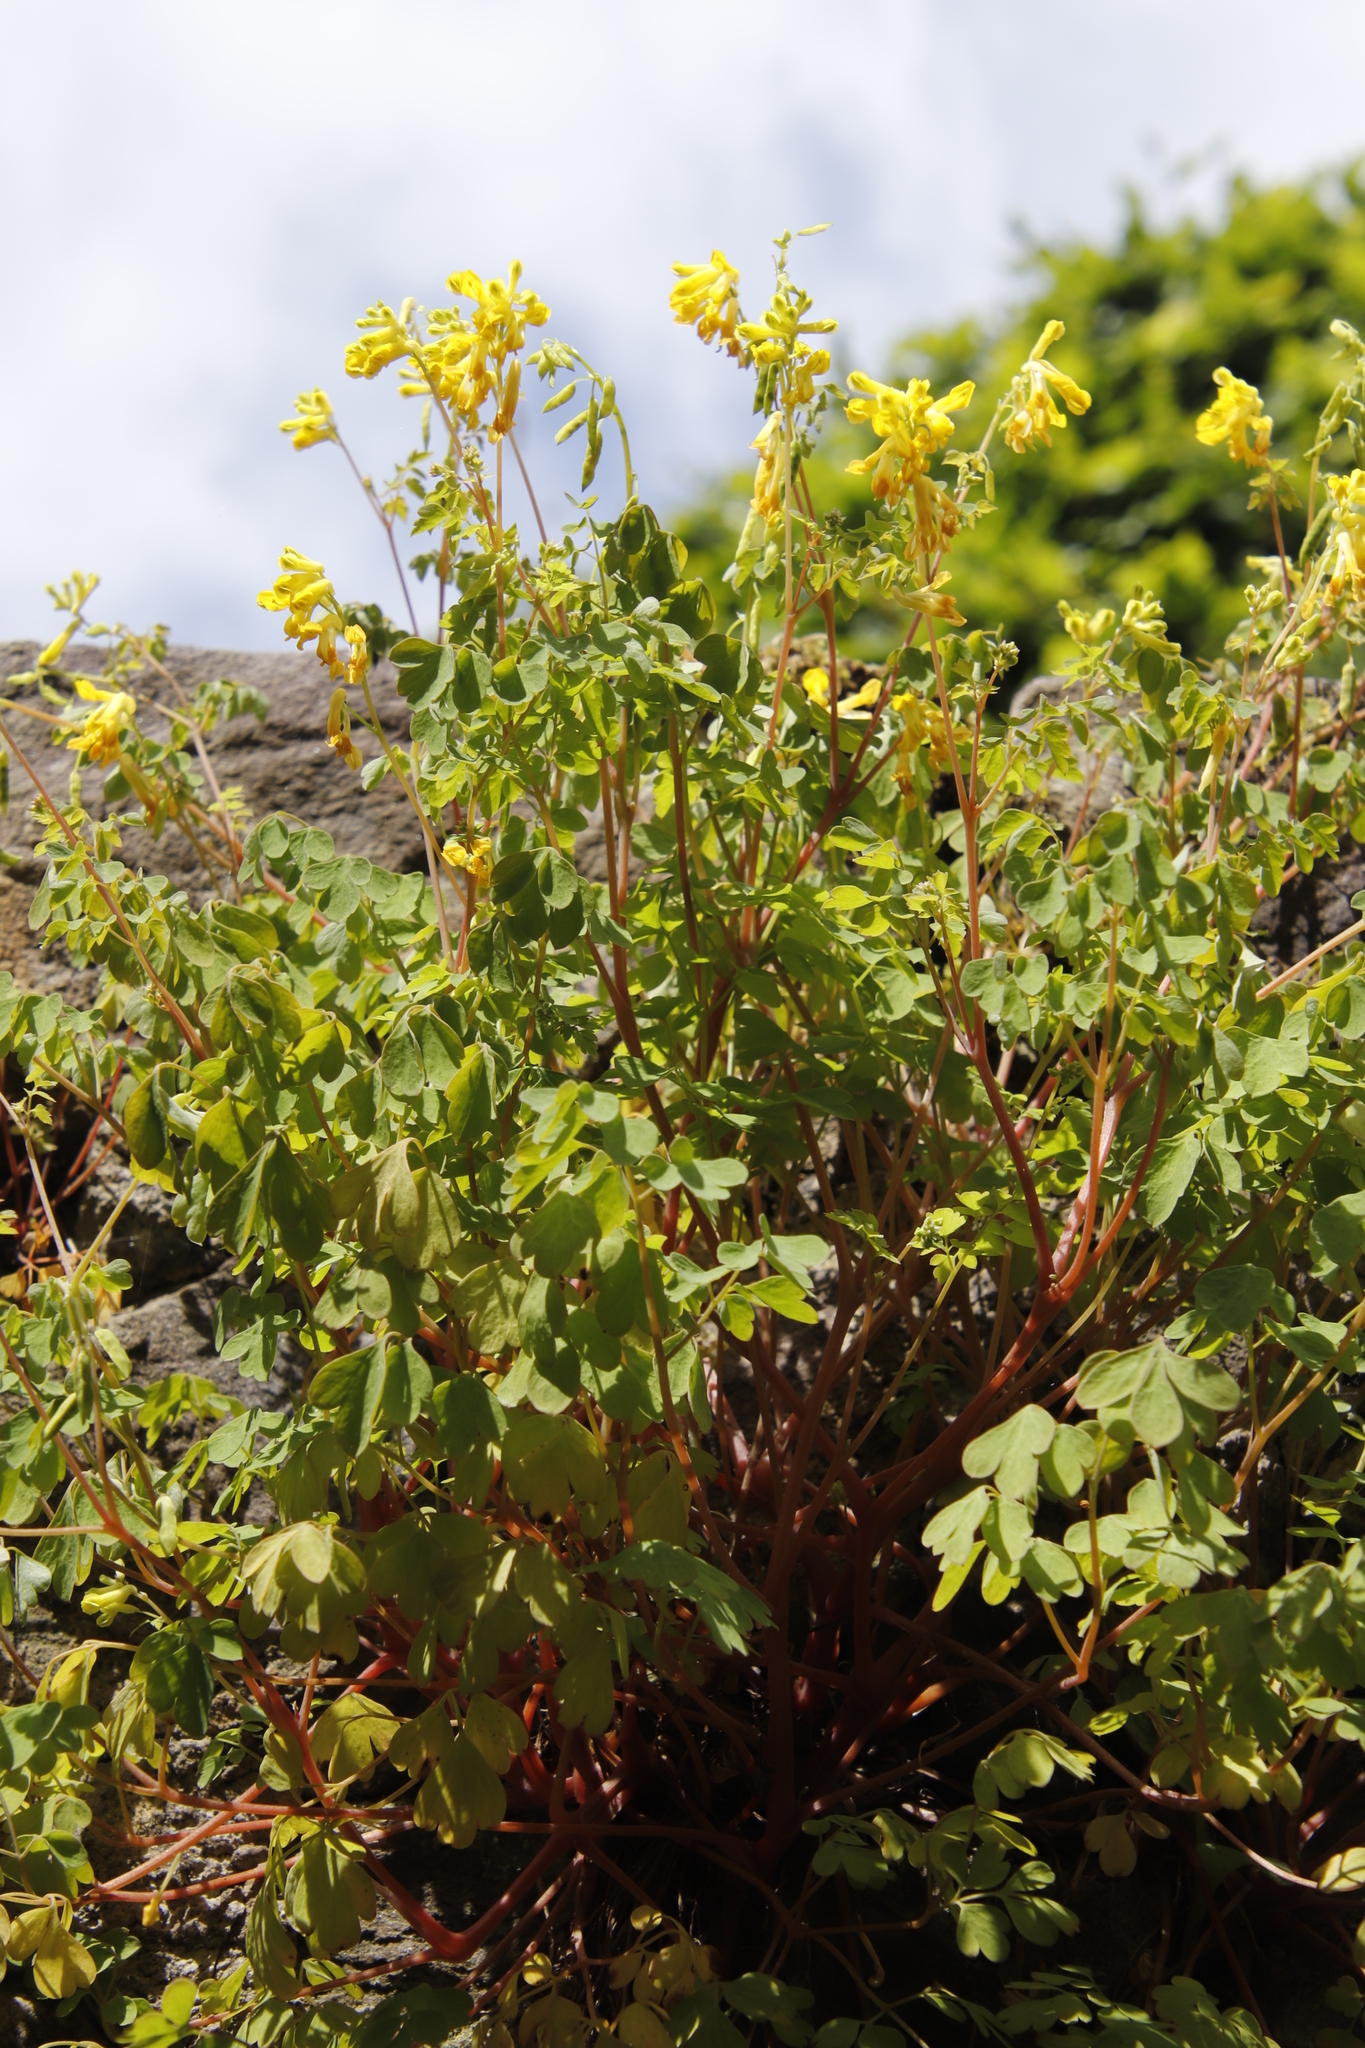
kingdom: Plantae
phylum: Tracheophyta
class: Magnoliopsida
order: Ranunculales
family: Papaveraceae
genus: Pseudofumaria
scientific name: Pseudofumaria lutea
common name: Yellow corydalis
